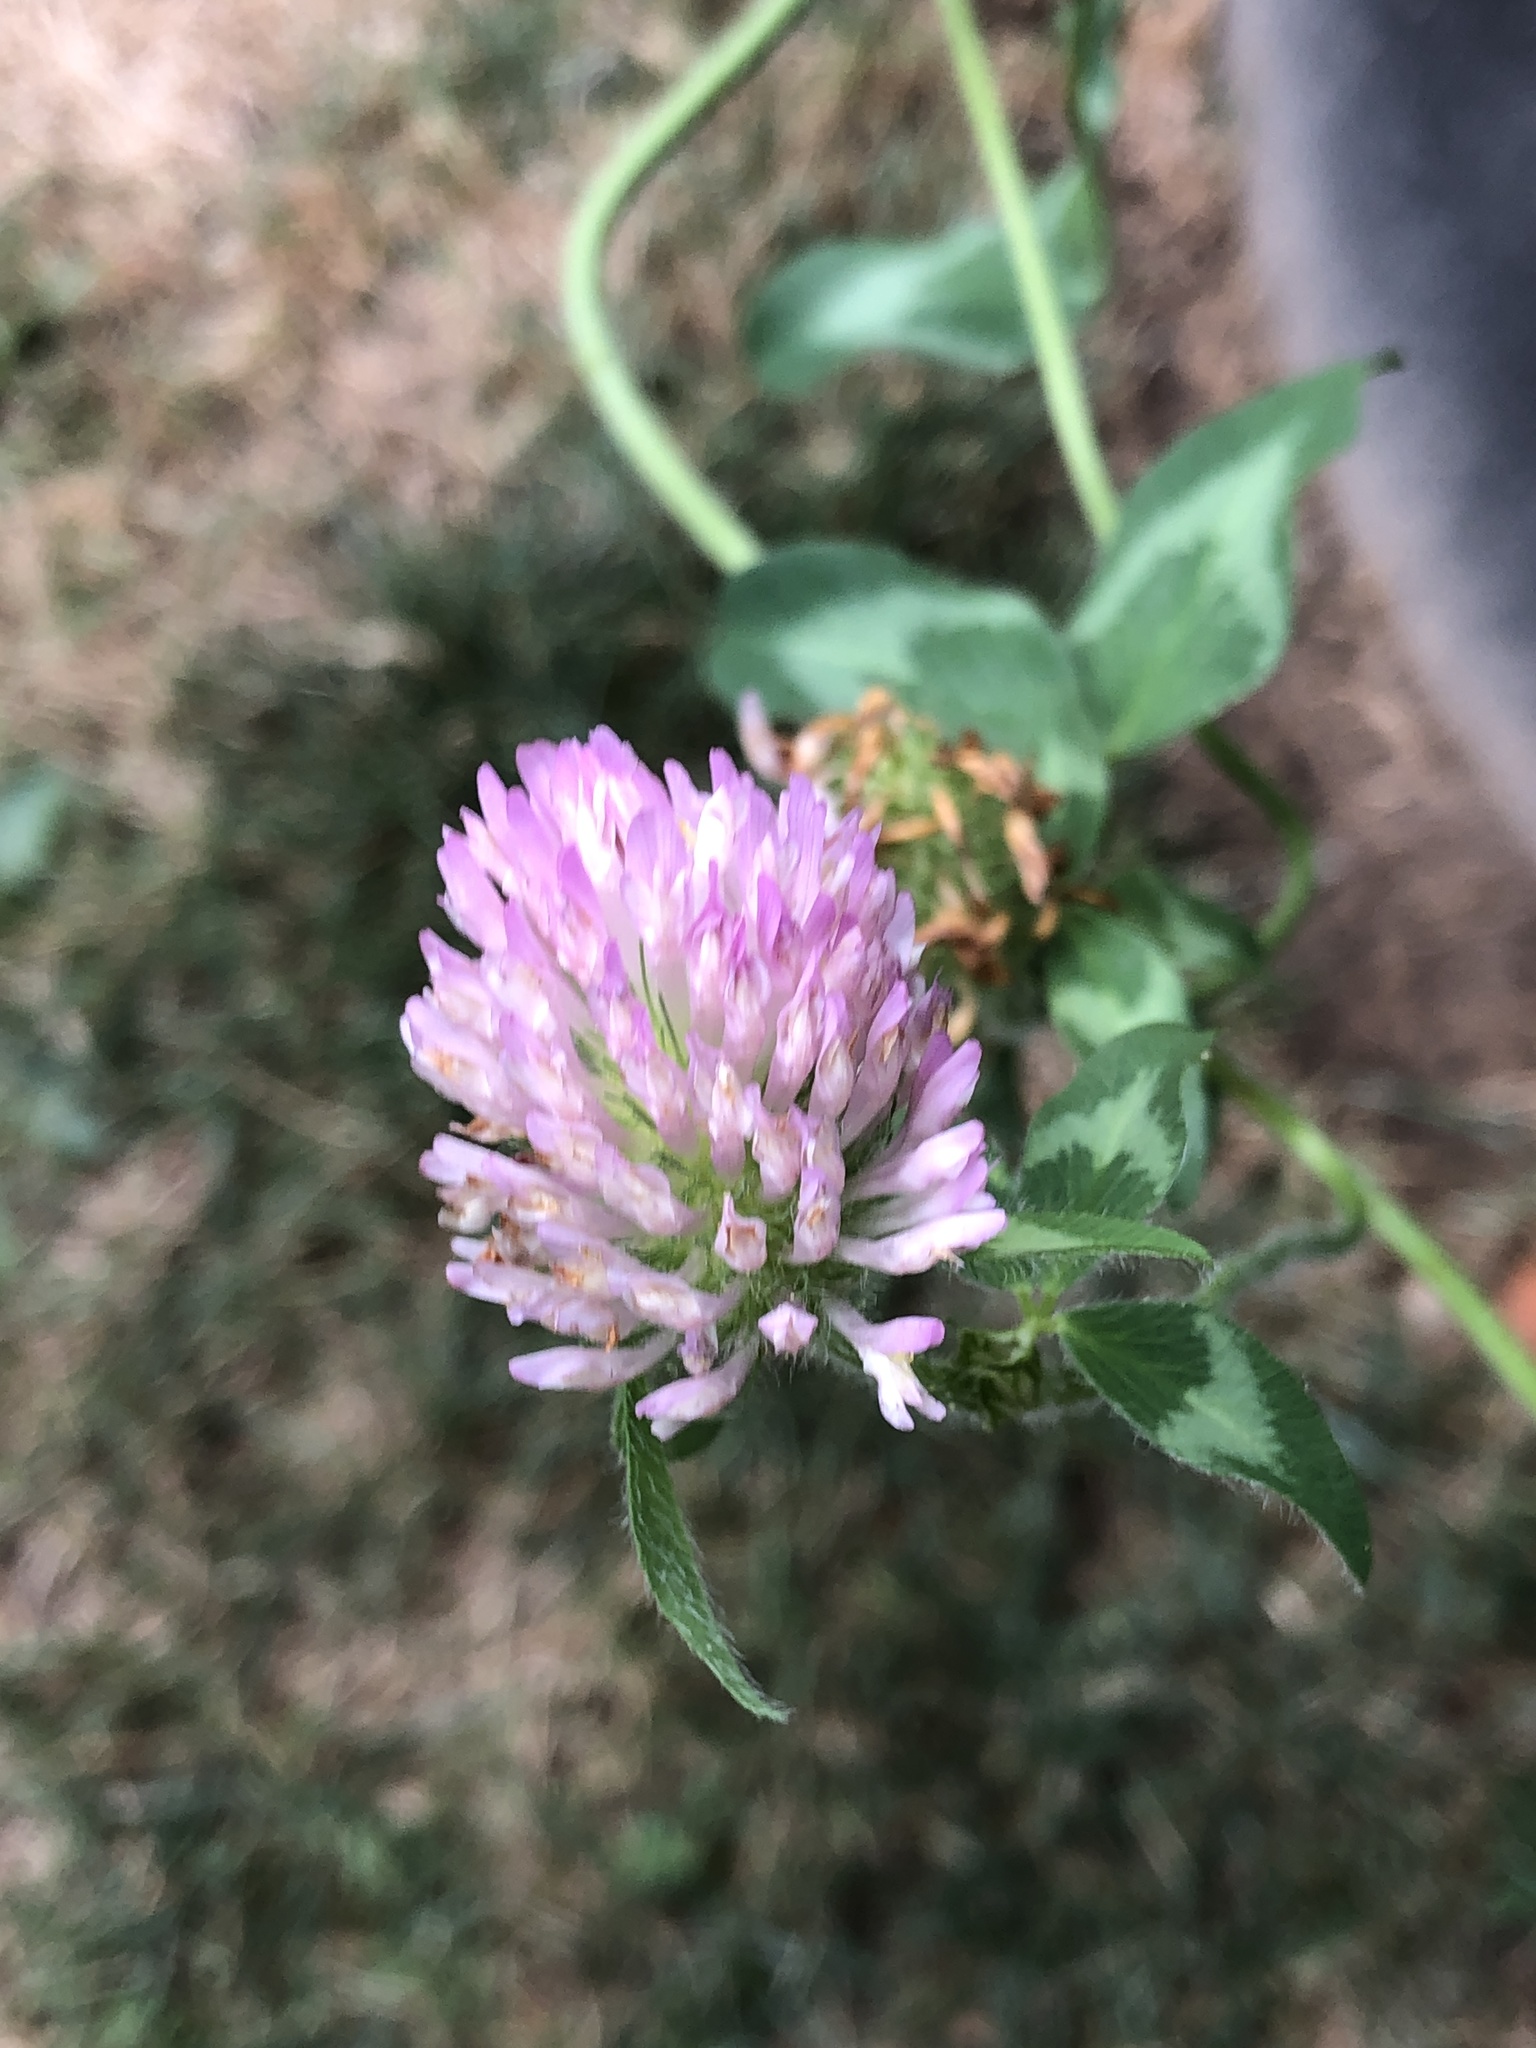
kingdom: Plantae
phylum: Tracheophyta
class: Magnoliopsida
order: Fabales
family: Fabaceae
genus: Trifolium
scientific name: Trifolium pratense
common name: Red clover
